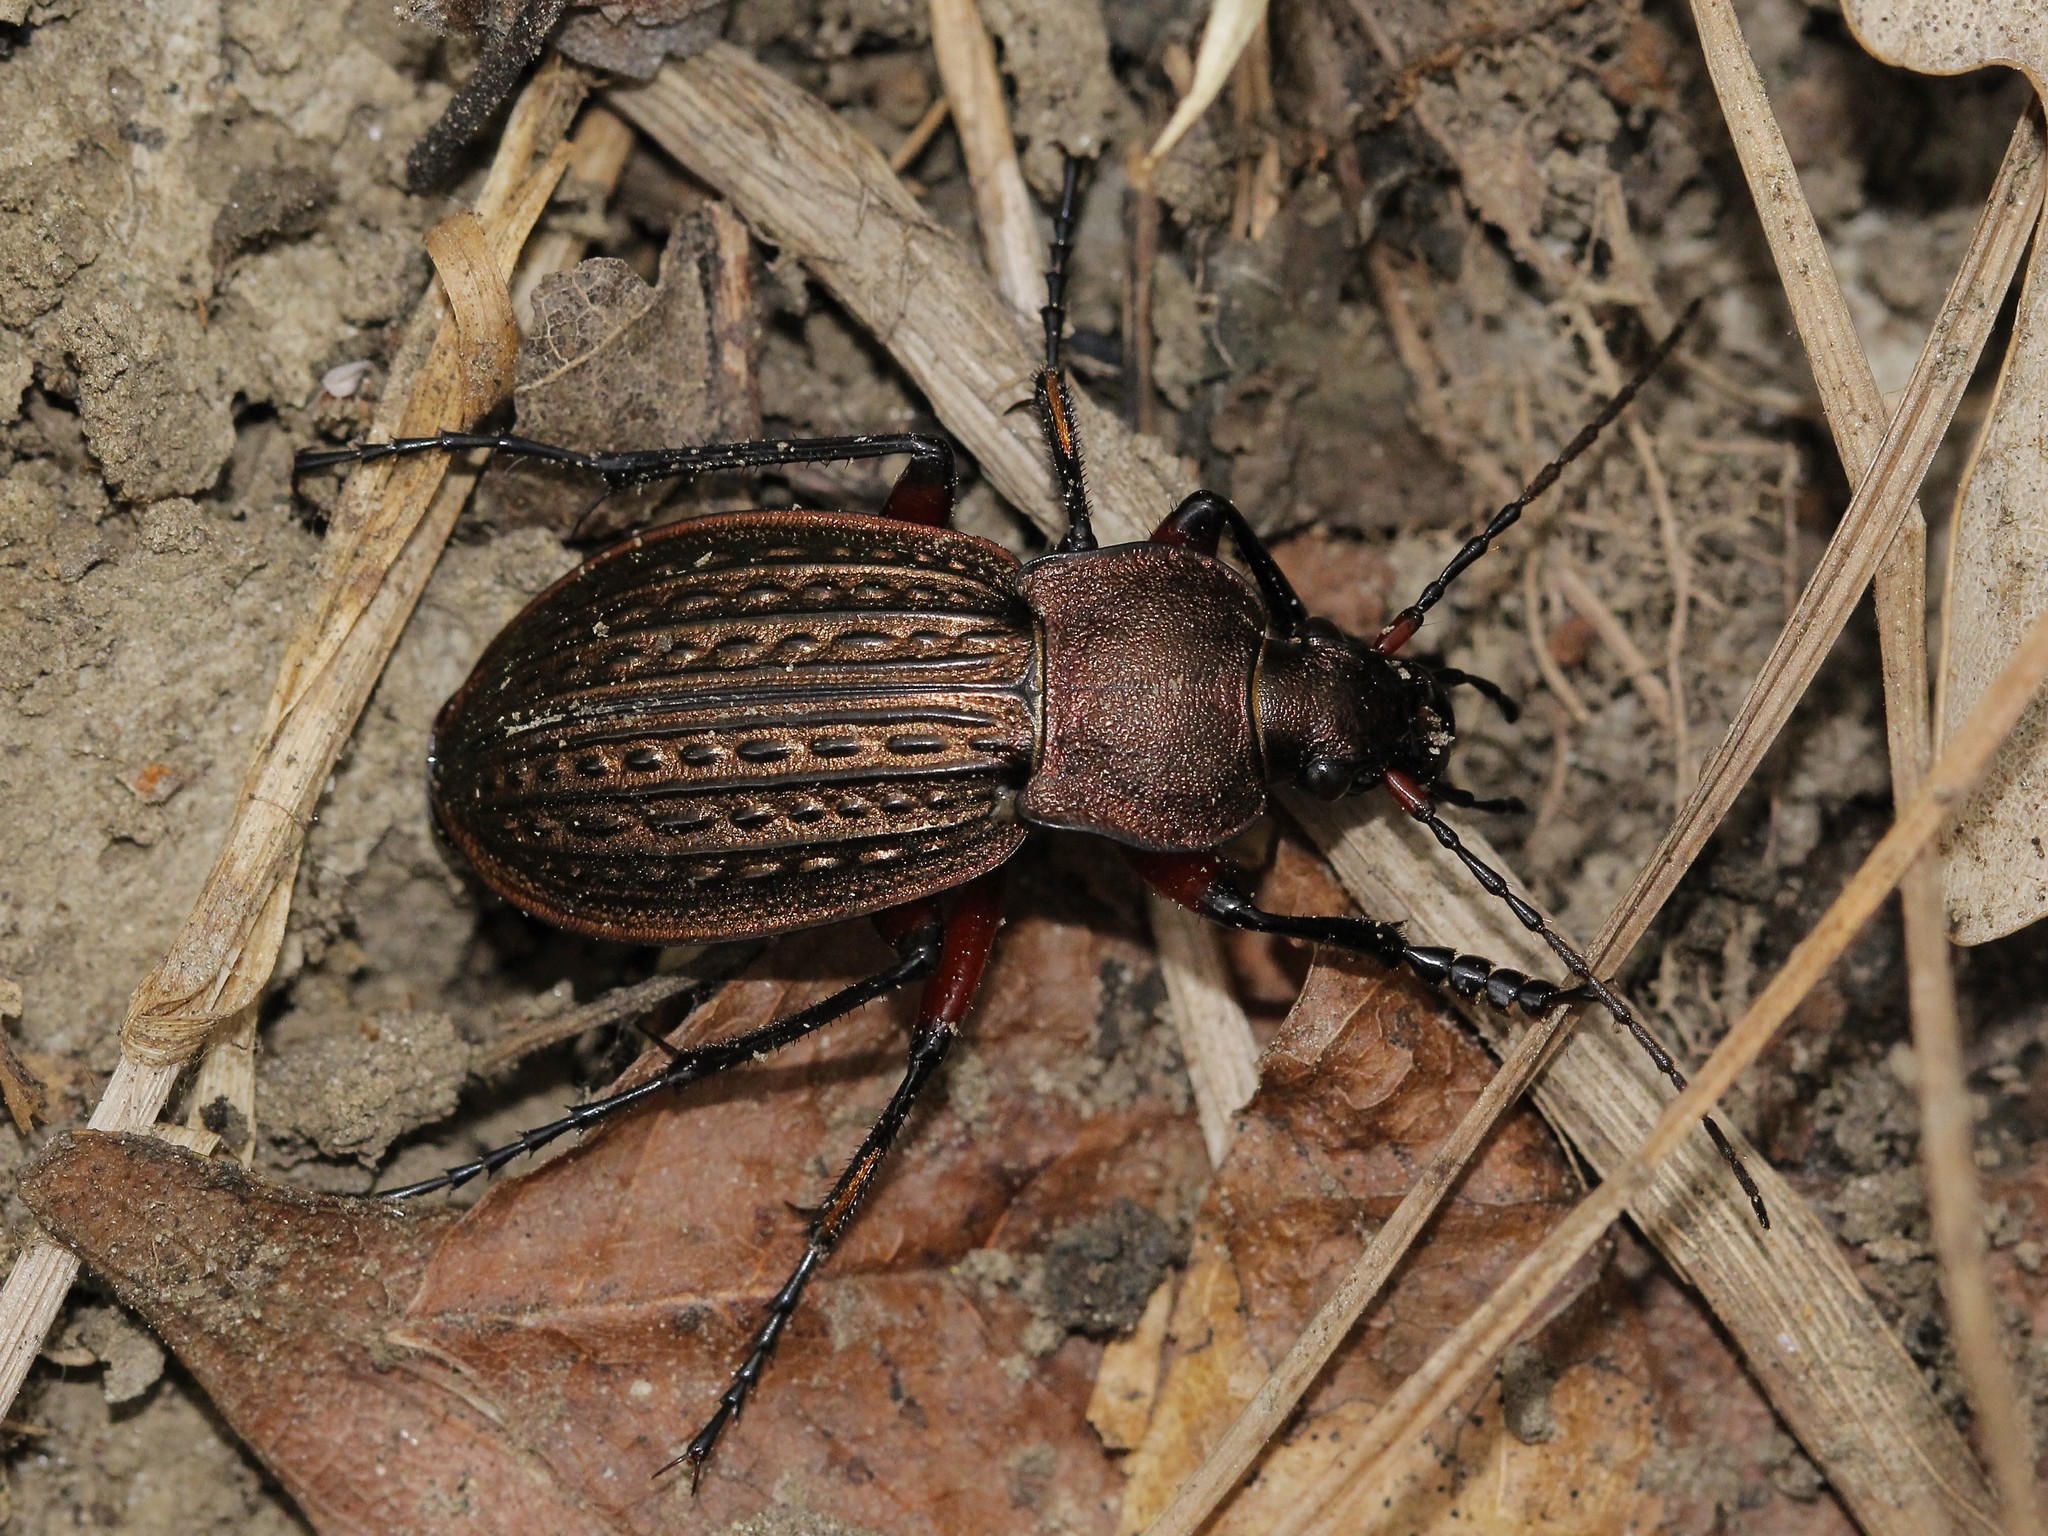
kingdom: Animalia
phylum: Arthropoda
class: Insecta
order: Coleoptera
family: Carabidae
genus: Carabus
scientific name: Carabus cancellatus
